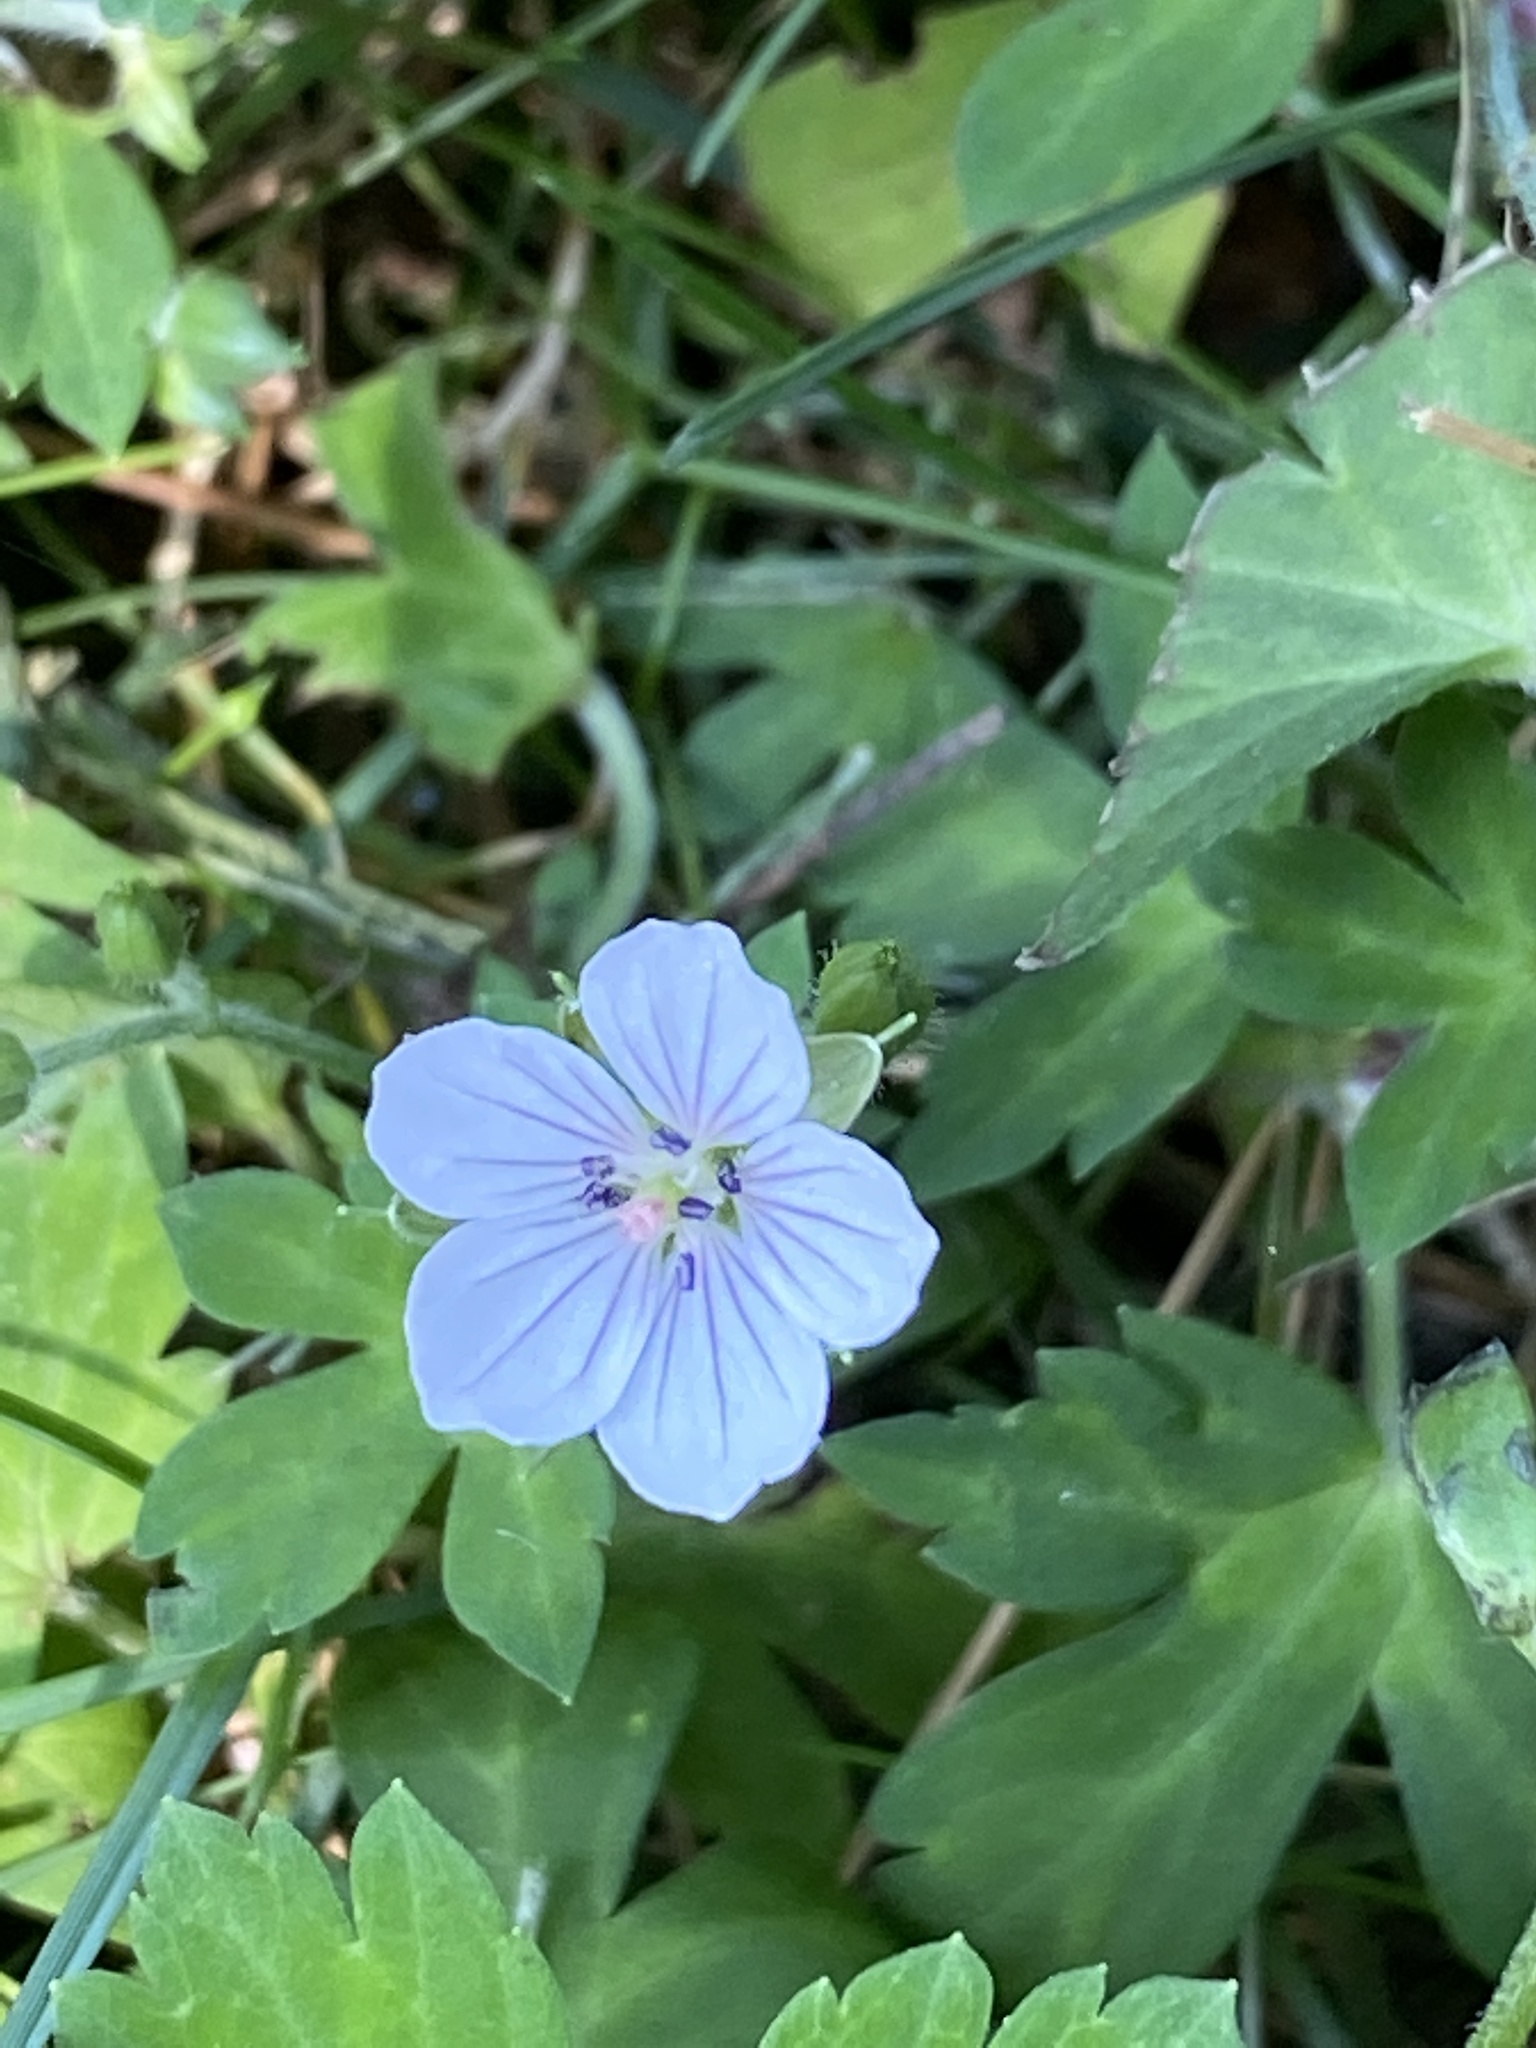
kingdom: Plantae
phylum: Tracheophyta
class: Magnoliopsida
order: Geraniales
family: Geraniaceae
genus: Geranium
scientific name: Geranium thunbergii
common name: Dewdrop crane's-bill
